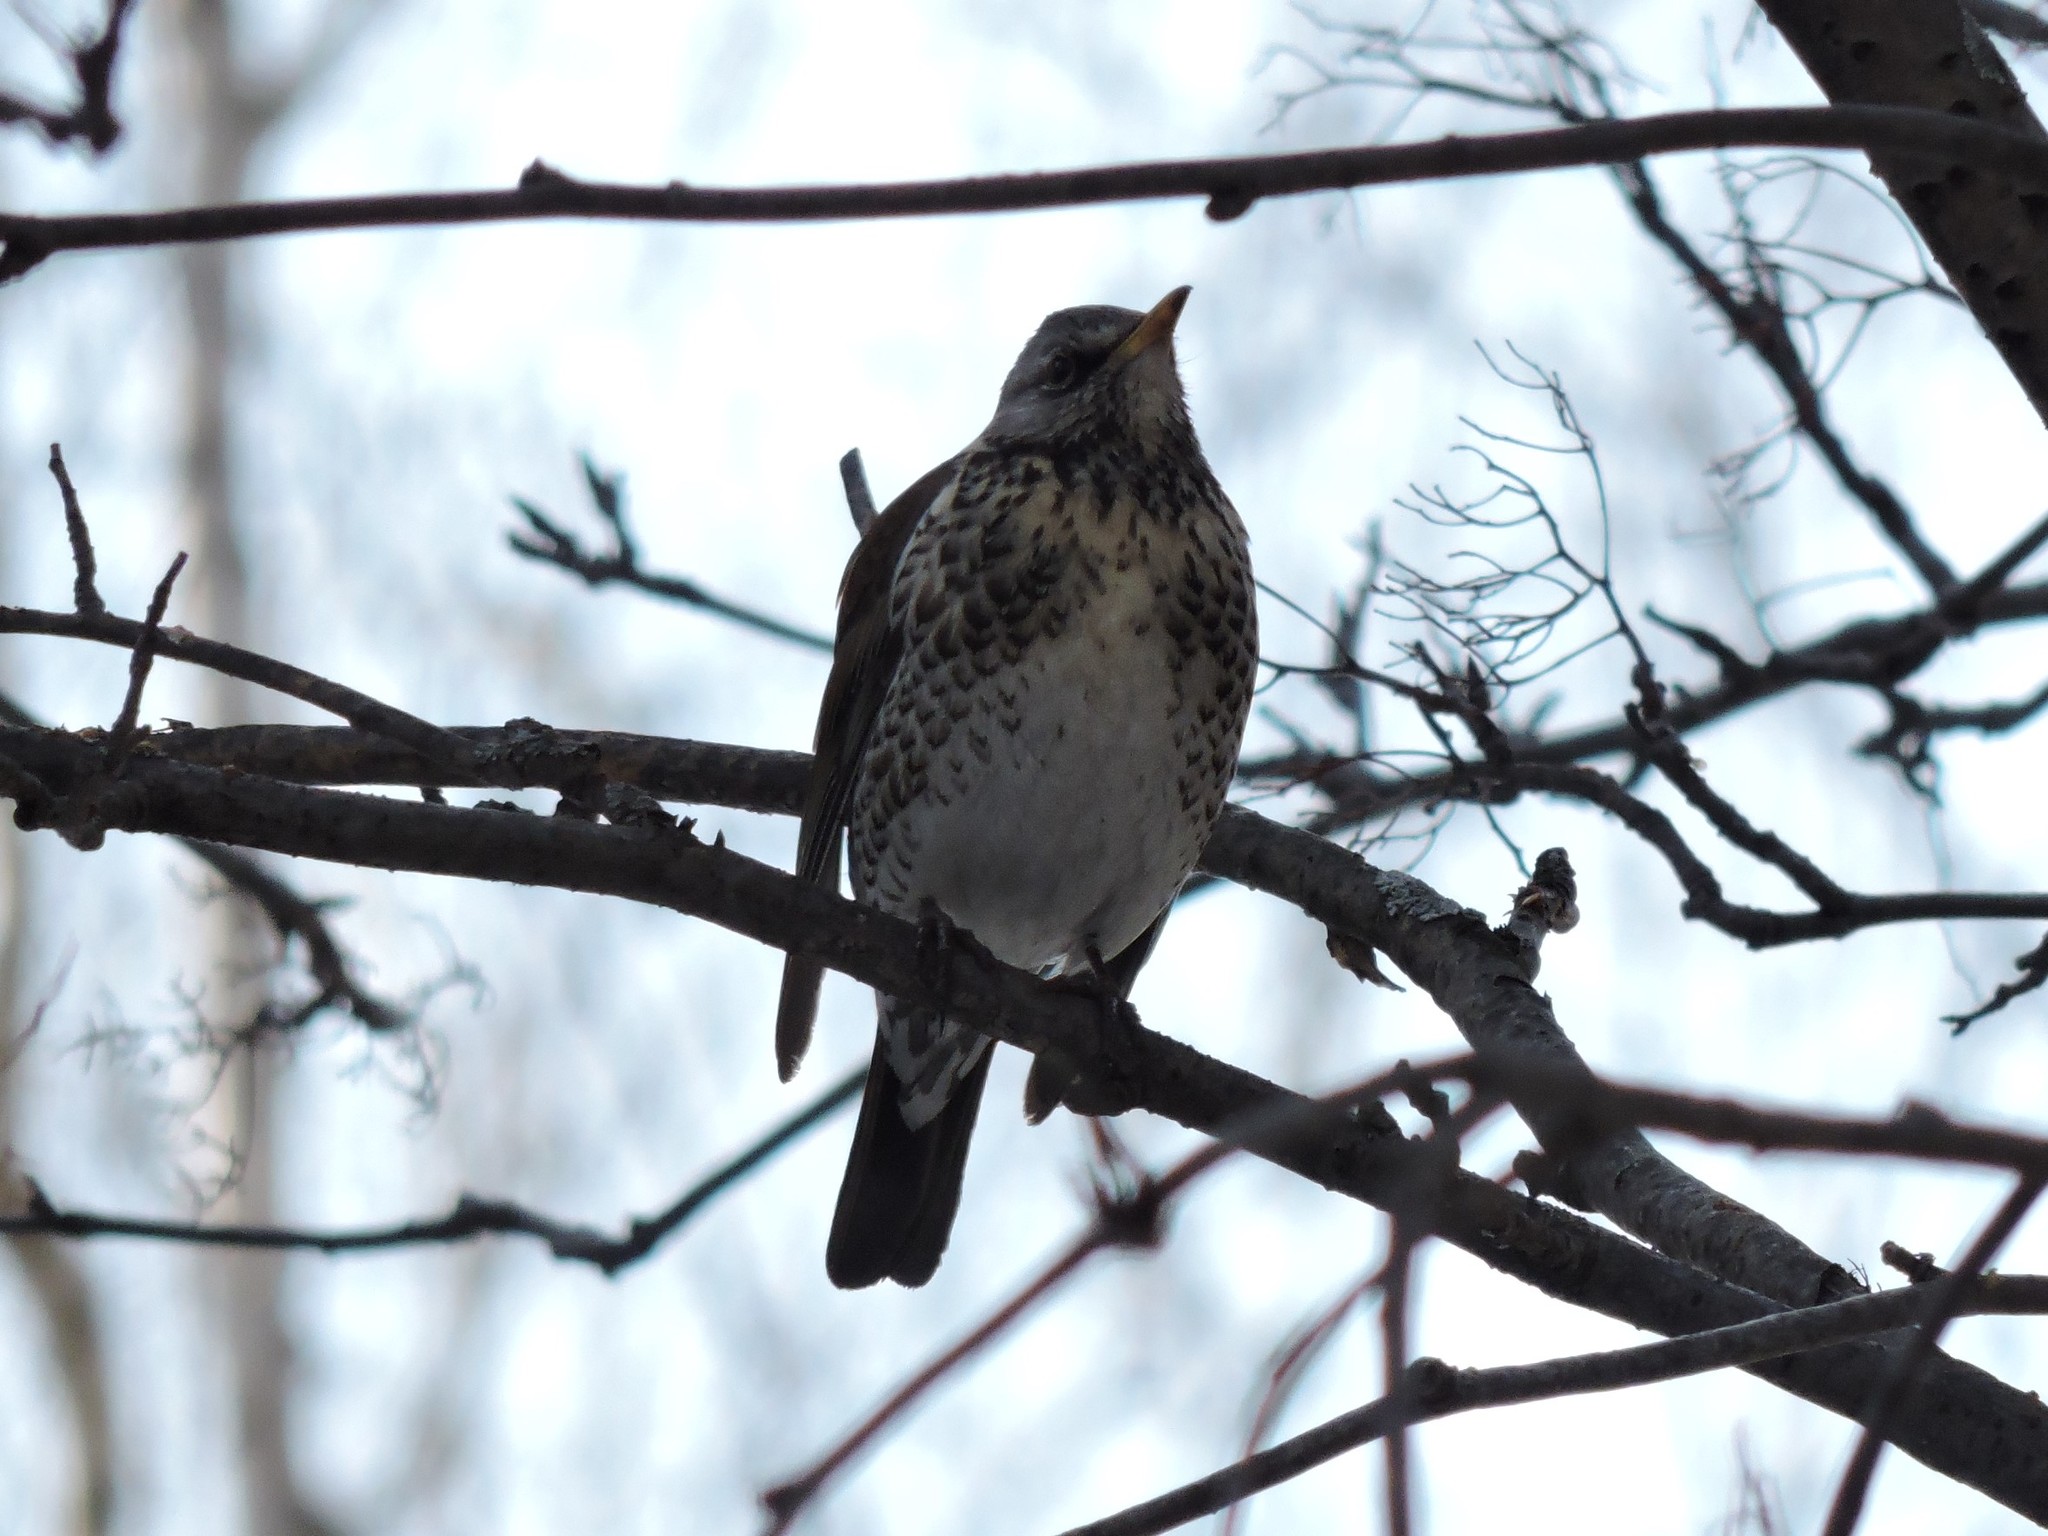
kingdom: Animalia
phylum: Chordata
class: Aves
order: Passeriformes
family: Turdidae
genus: Turdus
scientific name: Turdus pilaris
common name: Fieldfare
